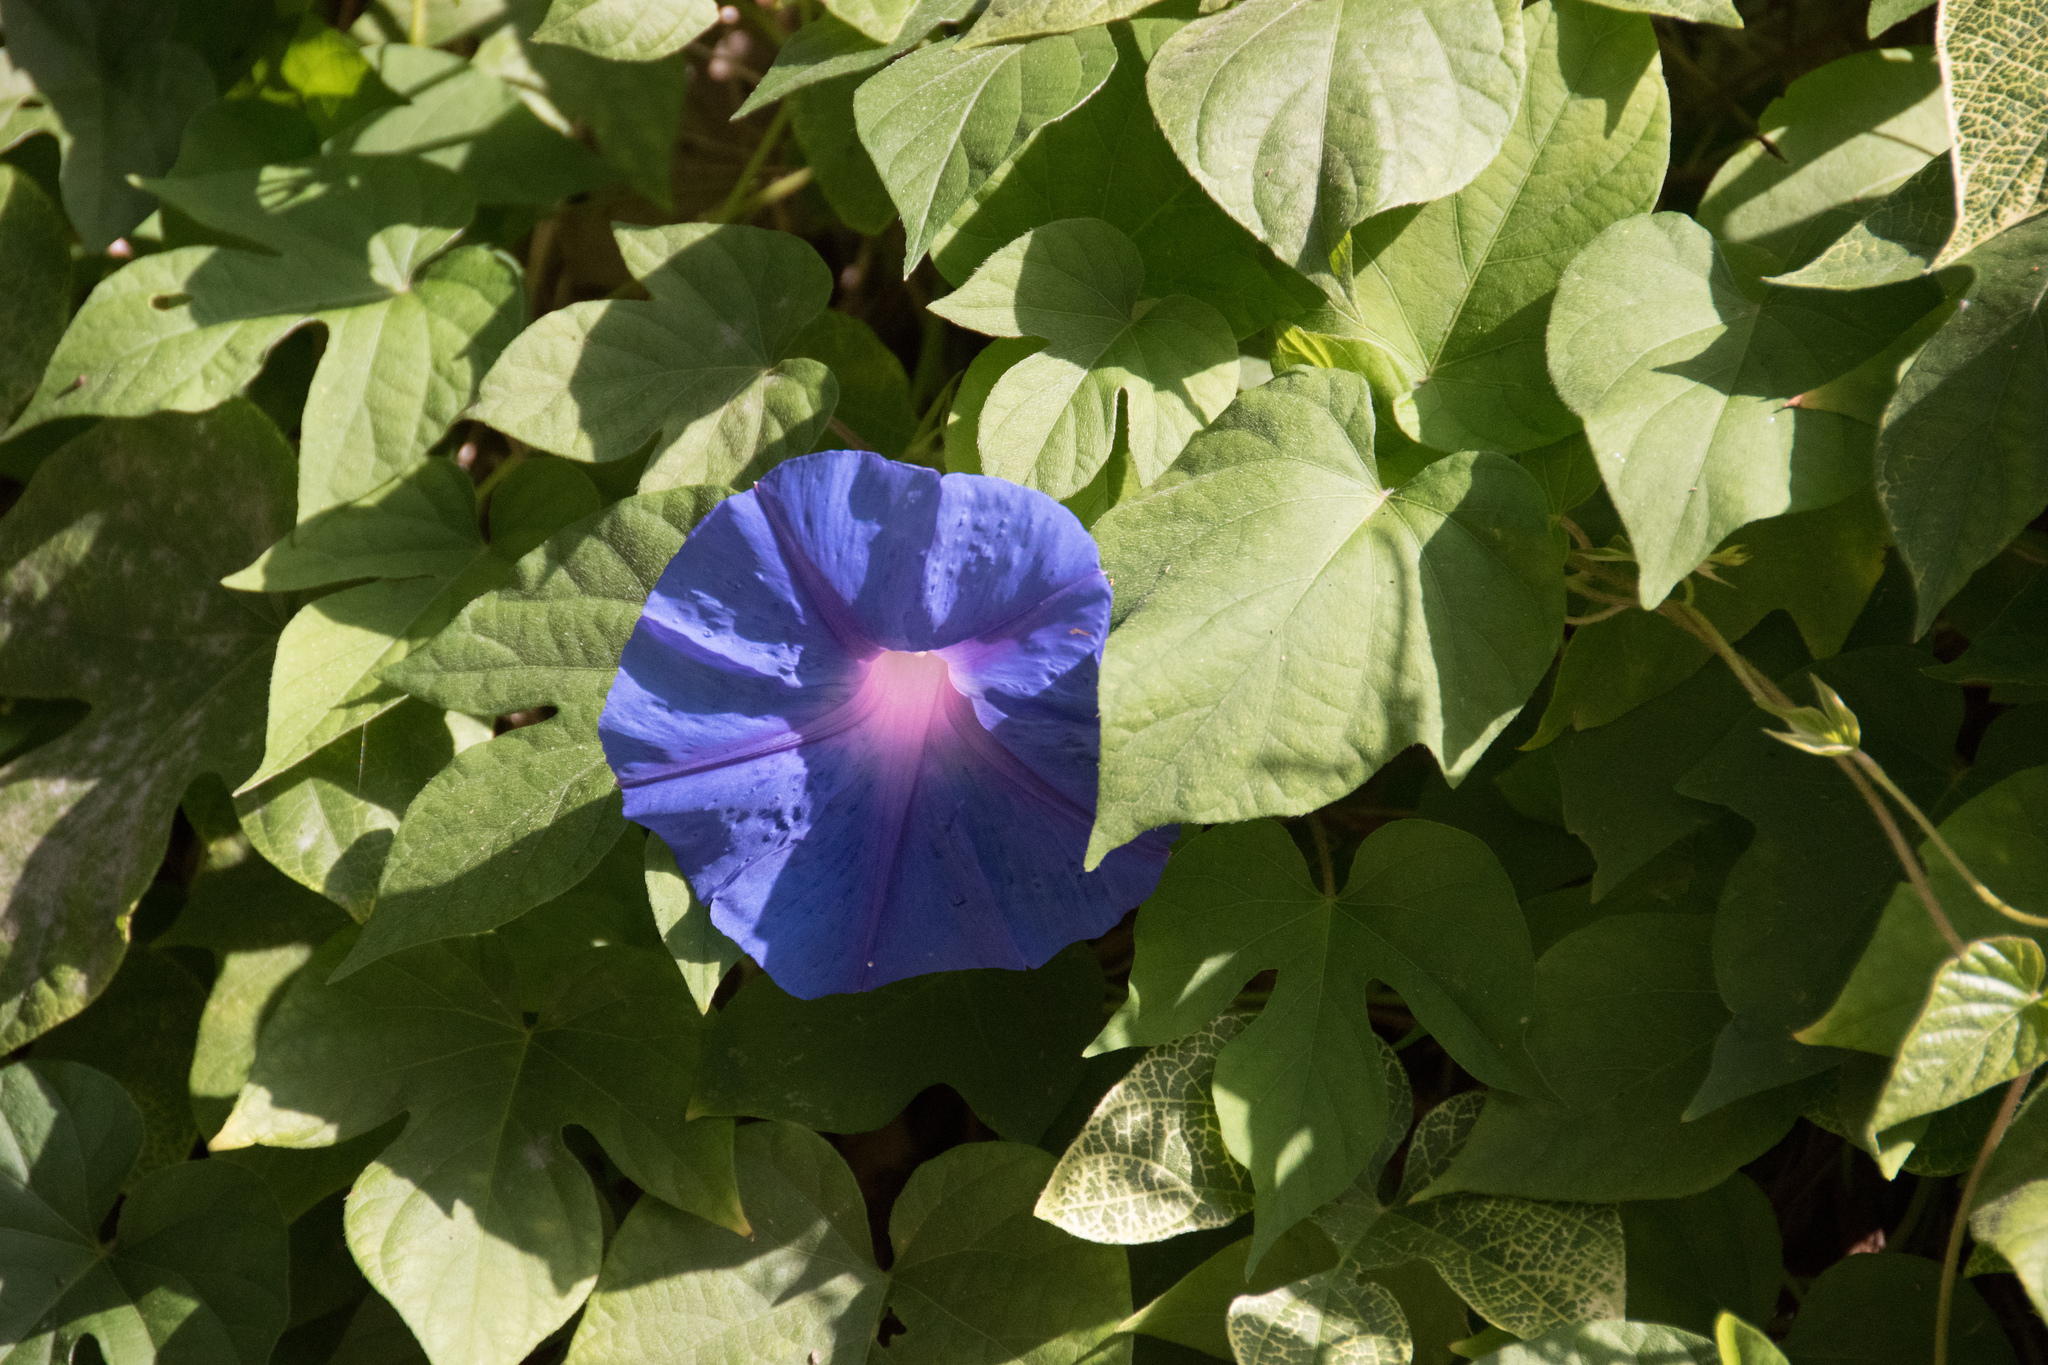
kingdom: Plantae
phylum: Tracheophyta
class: Magnoliopsida
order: Solanales
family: Convolvulaceae
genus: Ipomoea
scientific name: Ipomoea indica
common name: Blue dawnflower
